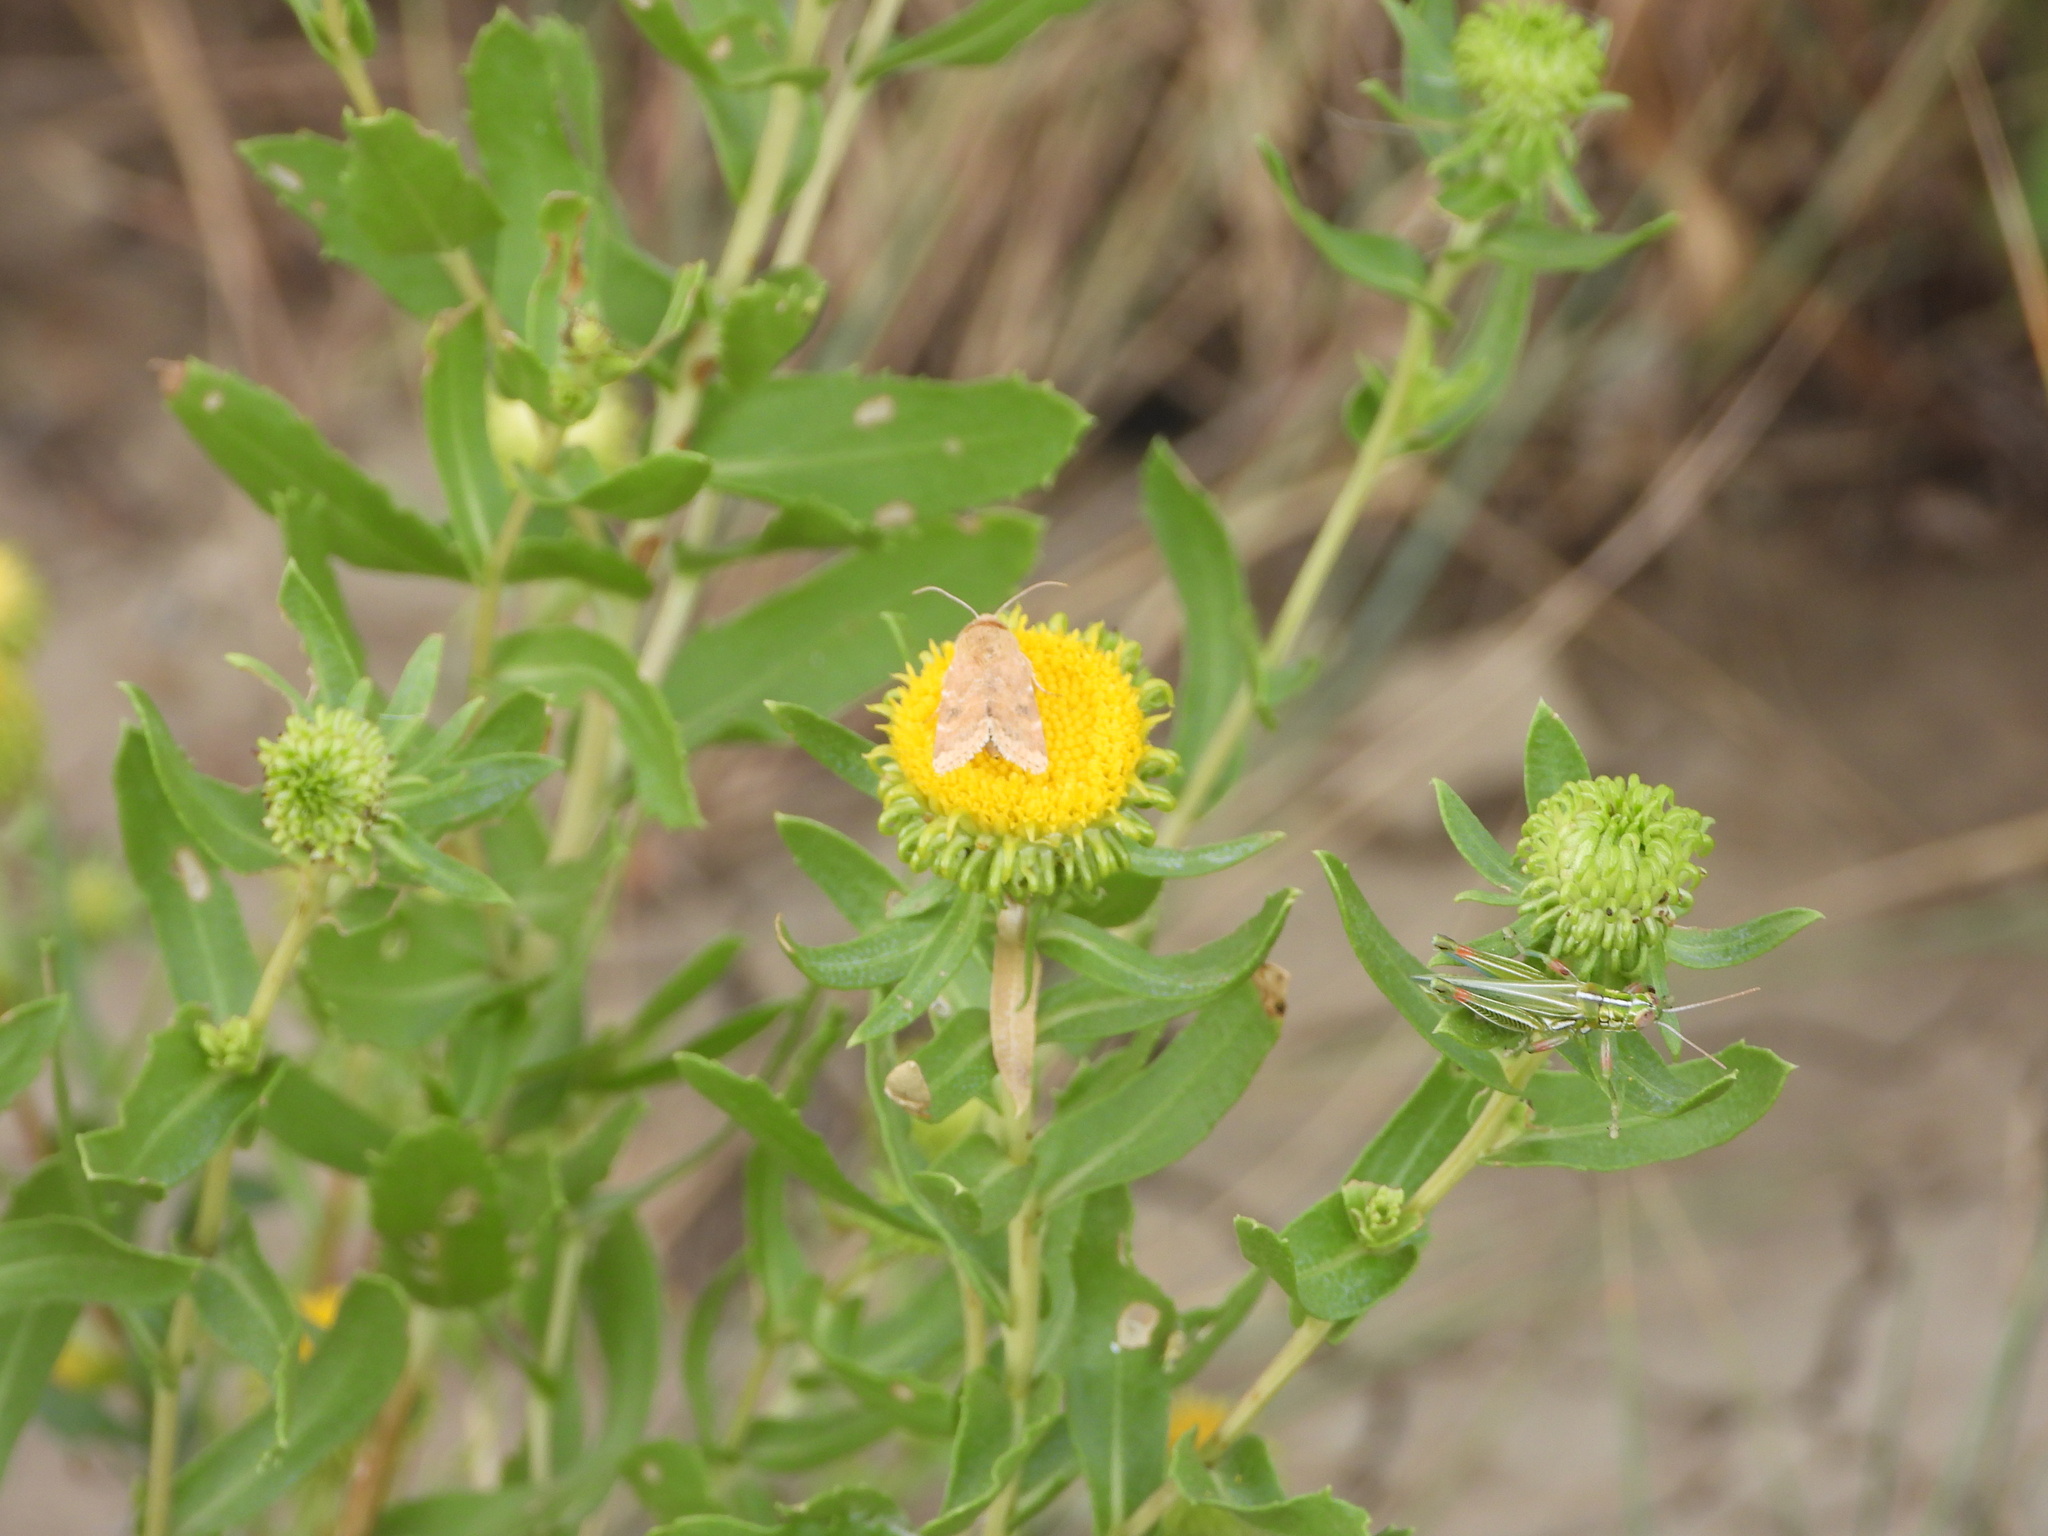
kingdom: Animalia
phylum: Arthropoda
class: Insecta
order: Orthoptera
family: Acrididae
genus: Hesperotettix
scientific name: Hesperotettix viridis
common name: Meadow purple-striped grasshopper
